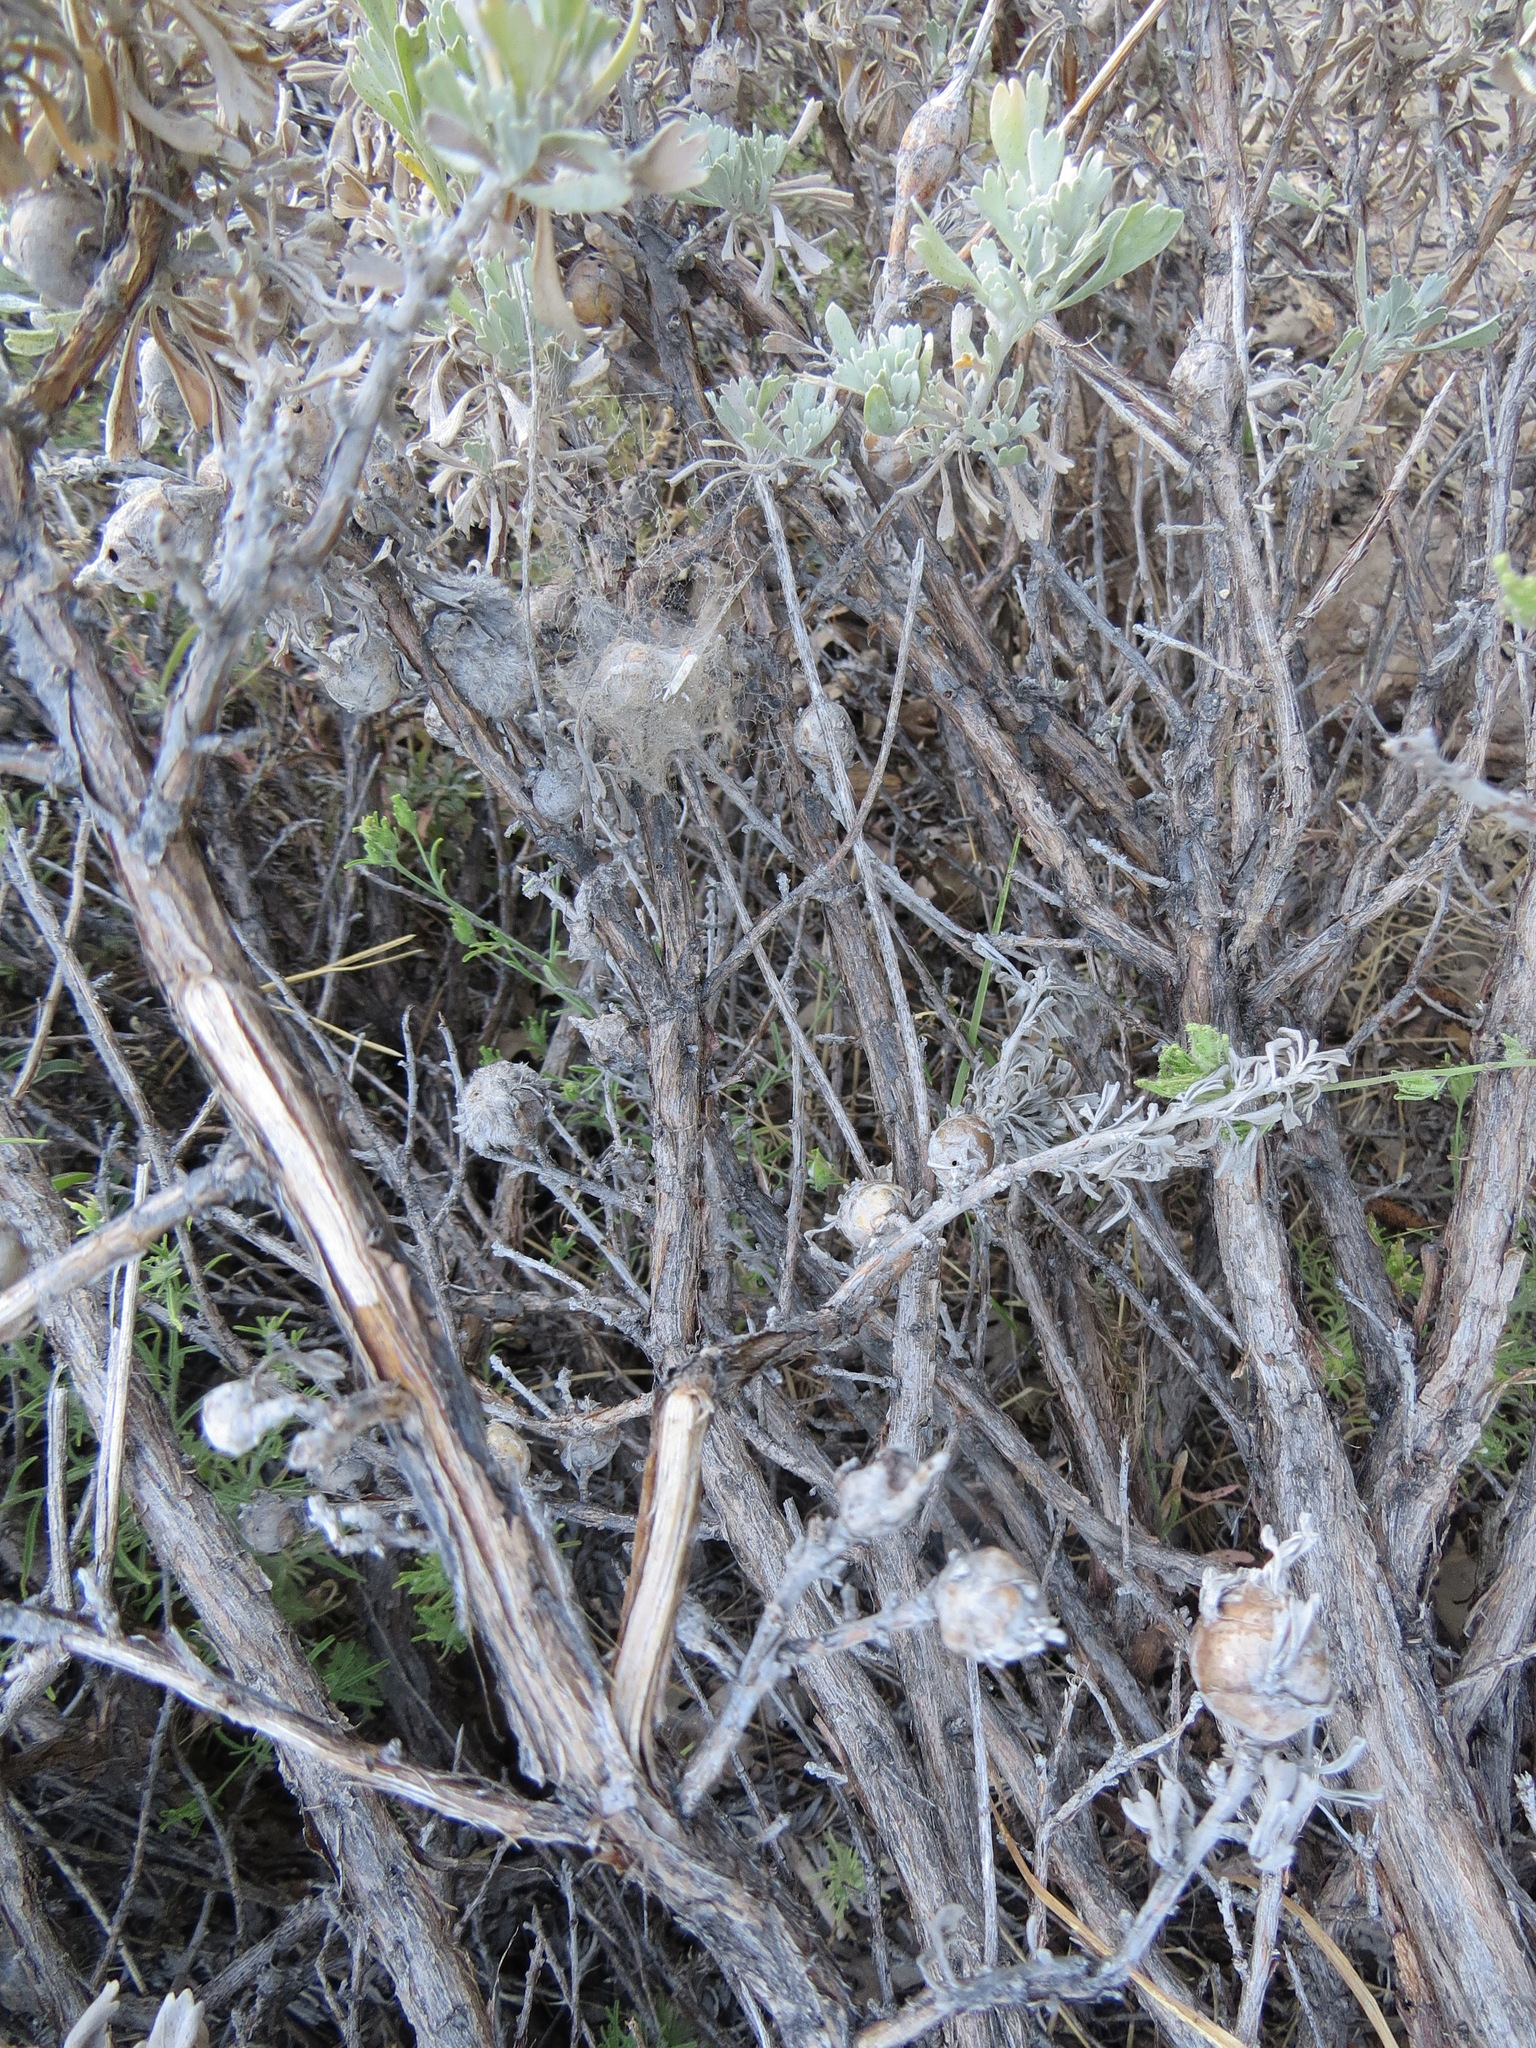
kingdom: Animalia
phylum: Arthropoda
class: Insecta
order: Diptera
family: Tephritidae
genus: Eutreta
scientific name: Eutreta diana
